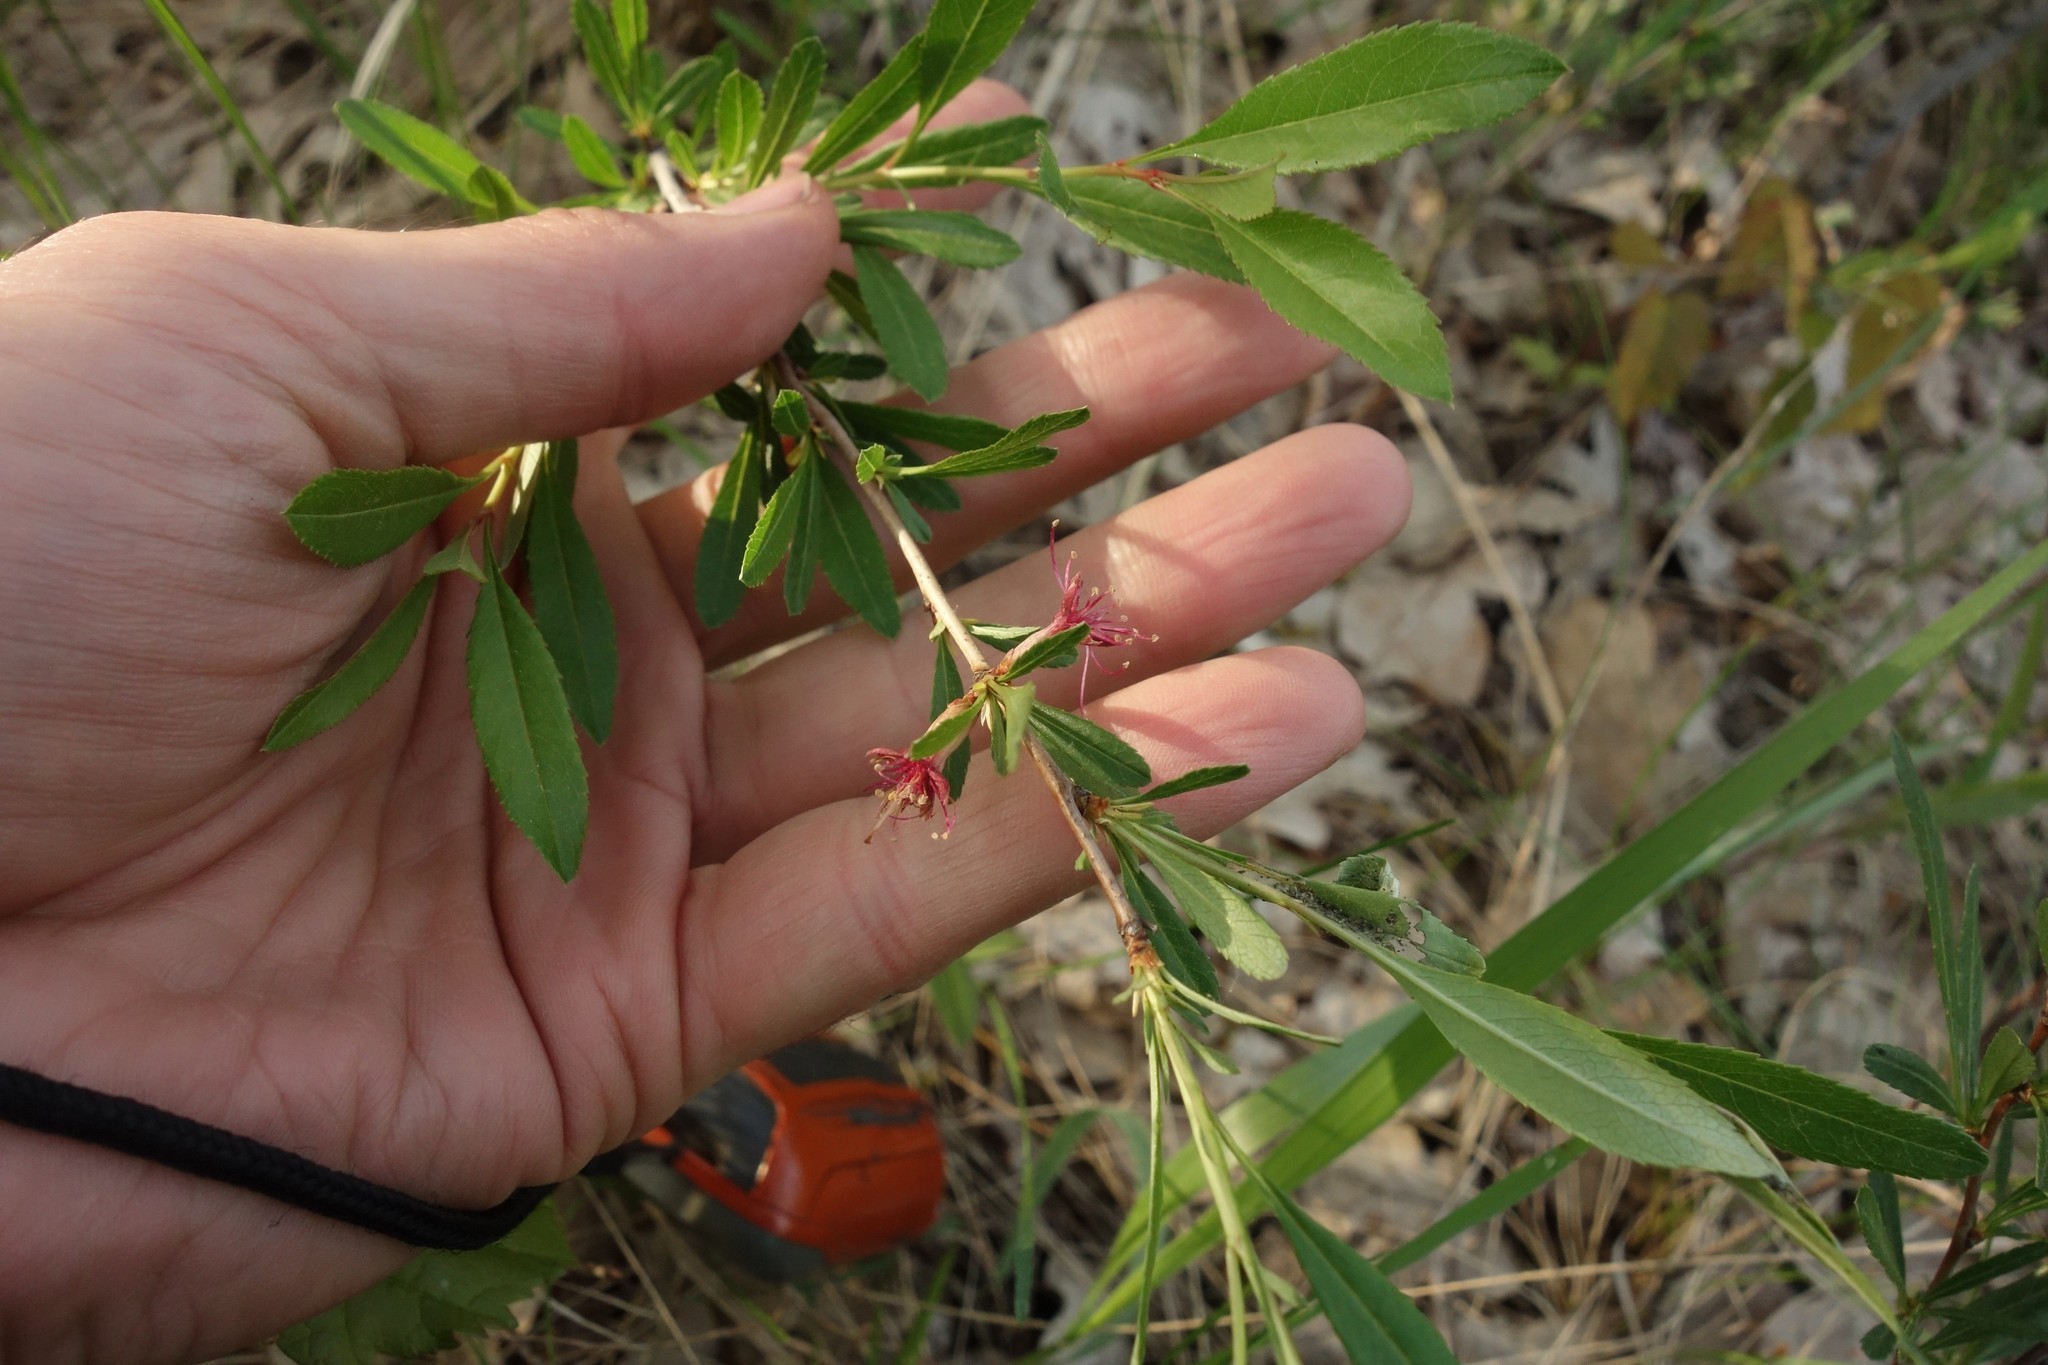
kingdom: Plantae
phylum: Tracheophyta
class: Magnoliopsida
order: Rosales
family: Rosaceae
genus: Prunus
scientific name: Prunus tenella
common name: Dwarf russian almond
